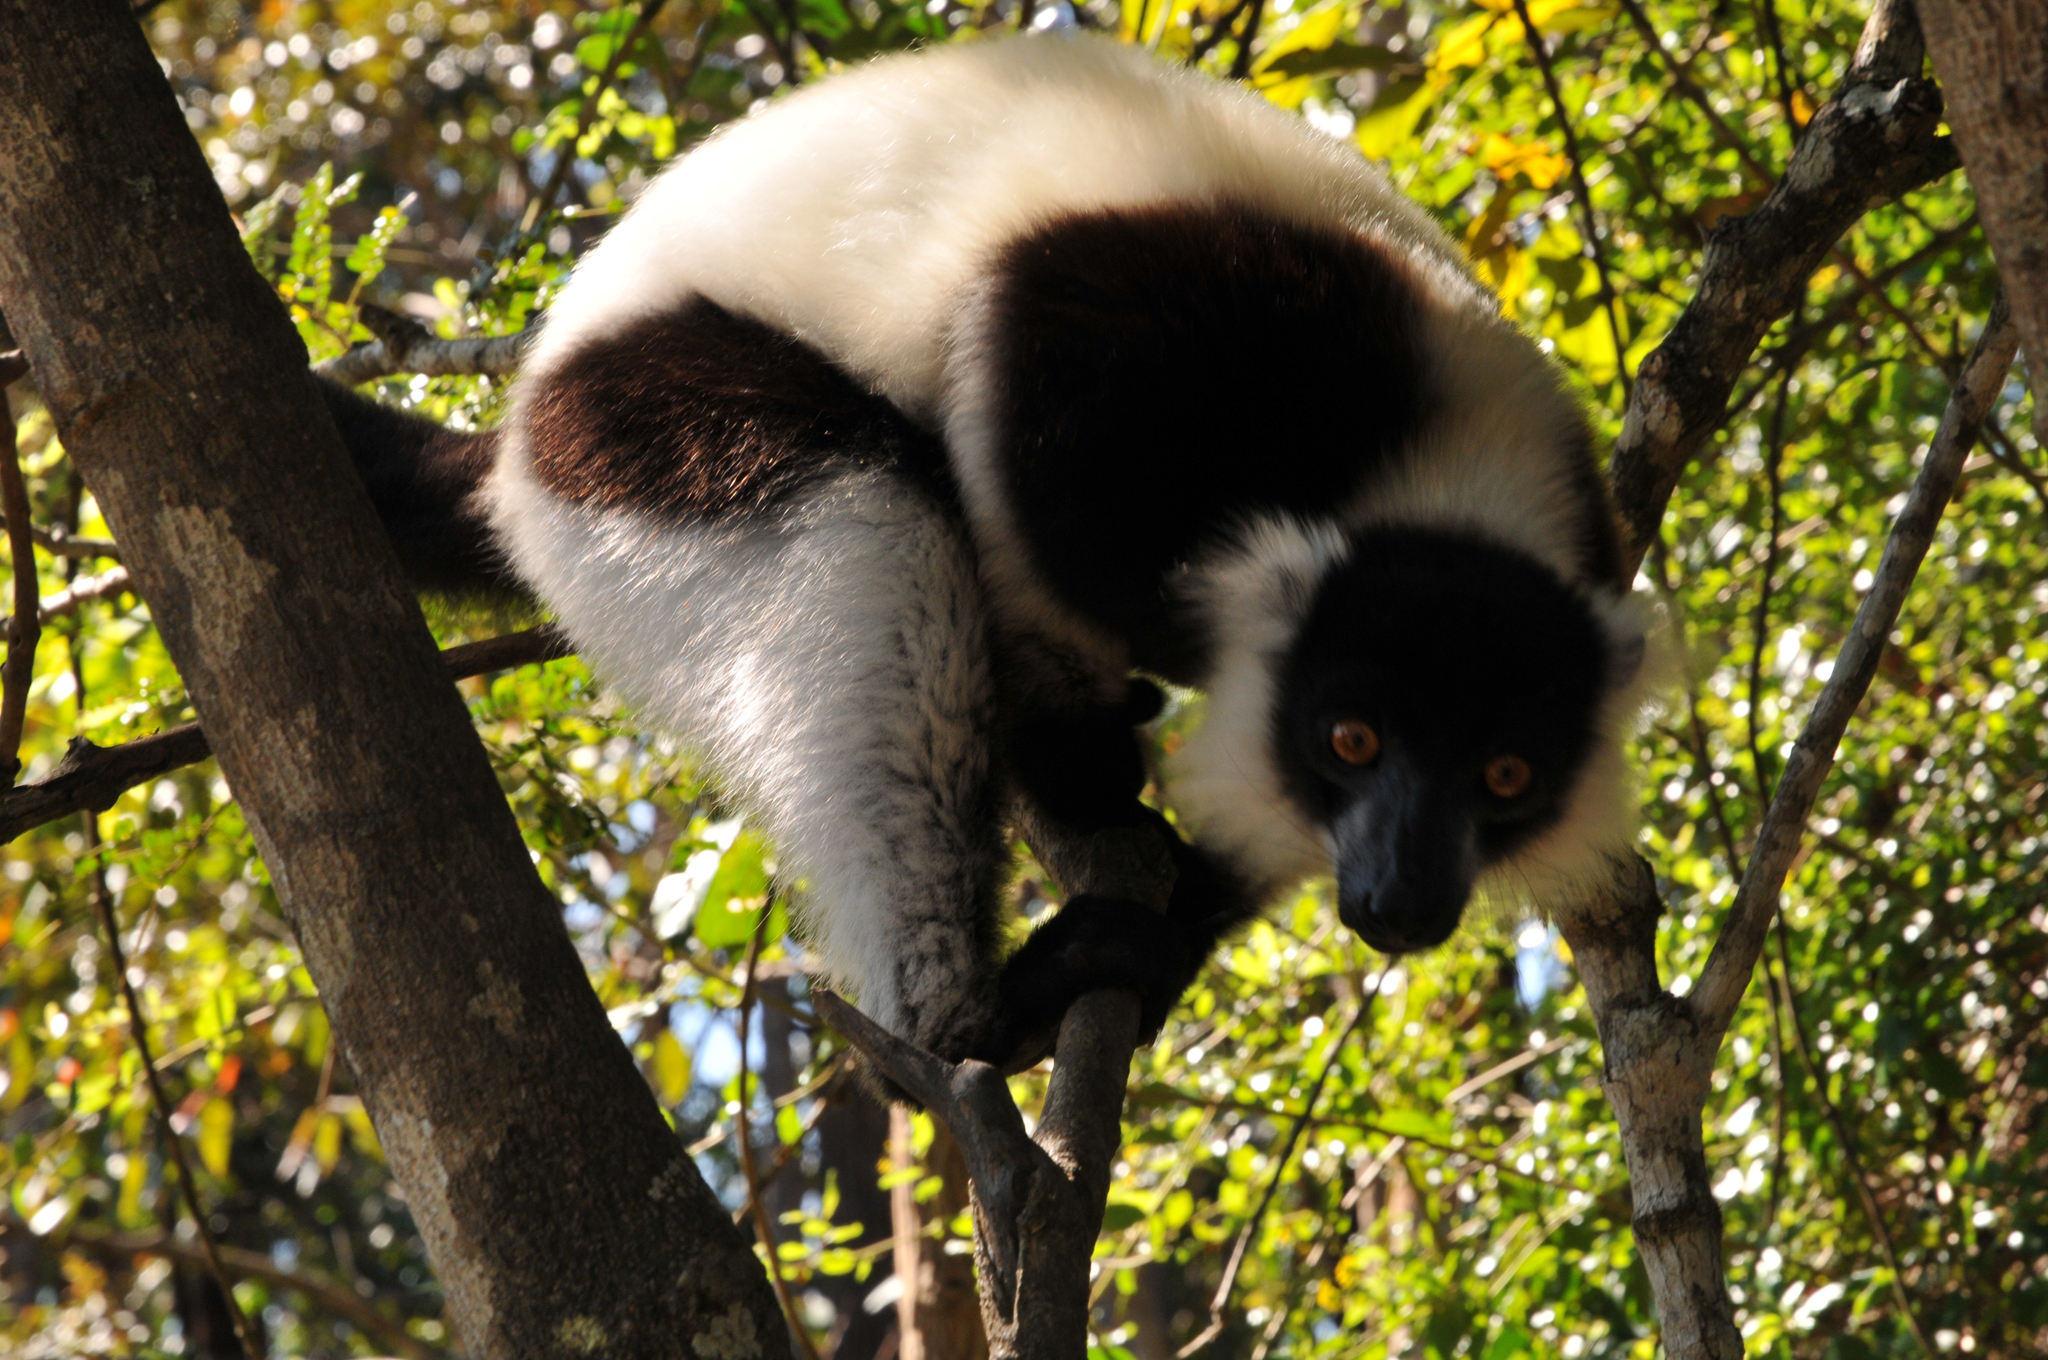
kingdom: Animalia
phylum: Chordata
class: Mammalia
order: Primates
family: Lemuridae
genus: Varecia
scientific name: Varecia variegata
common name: Black-and-white ruffed lemur
